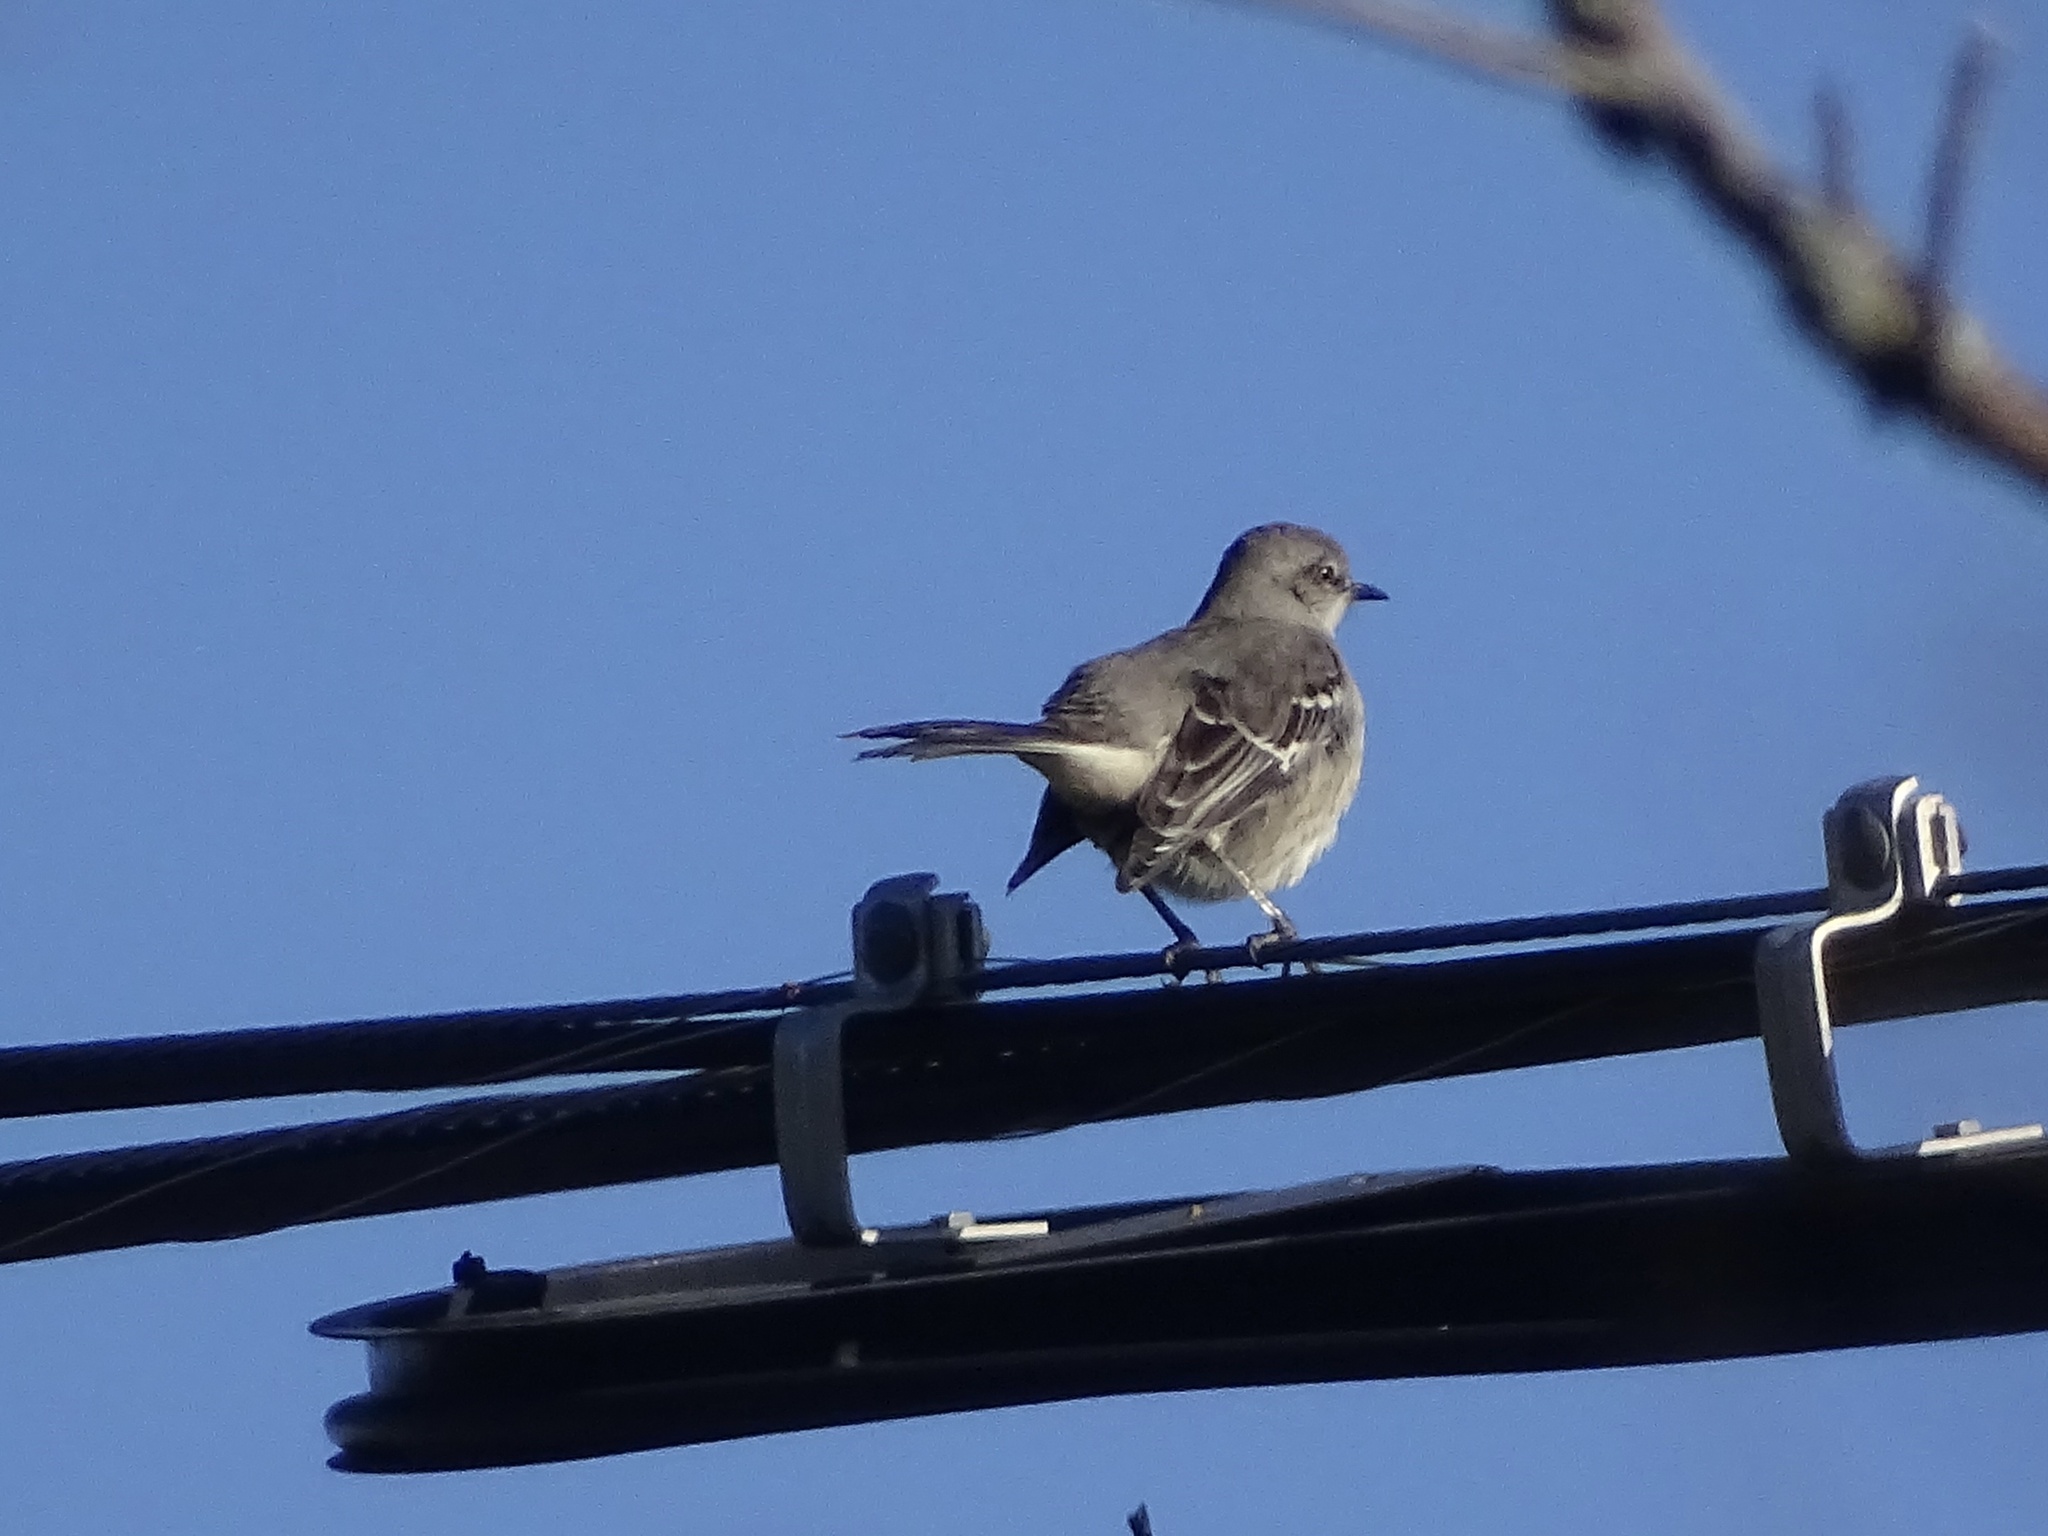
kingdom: Animalia
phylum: Chordata
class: Aves
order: Passeriformes
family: Mimidae
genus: Mimus
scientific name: Mimus polyglottos
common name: Northern mockingbird
